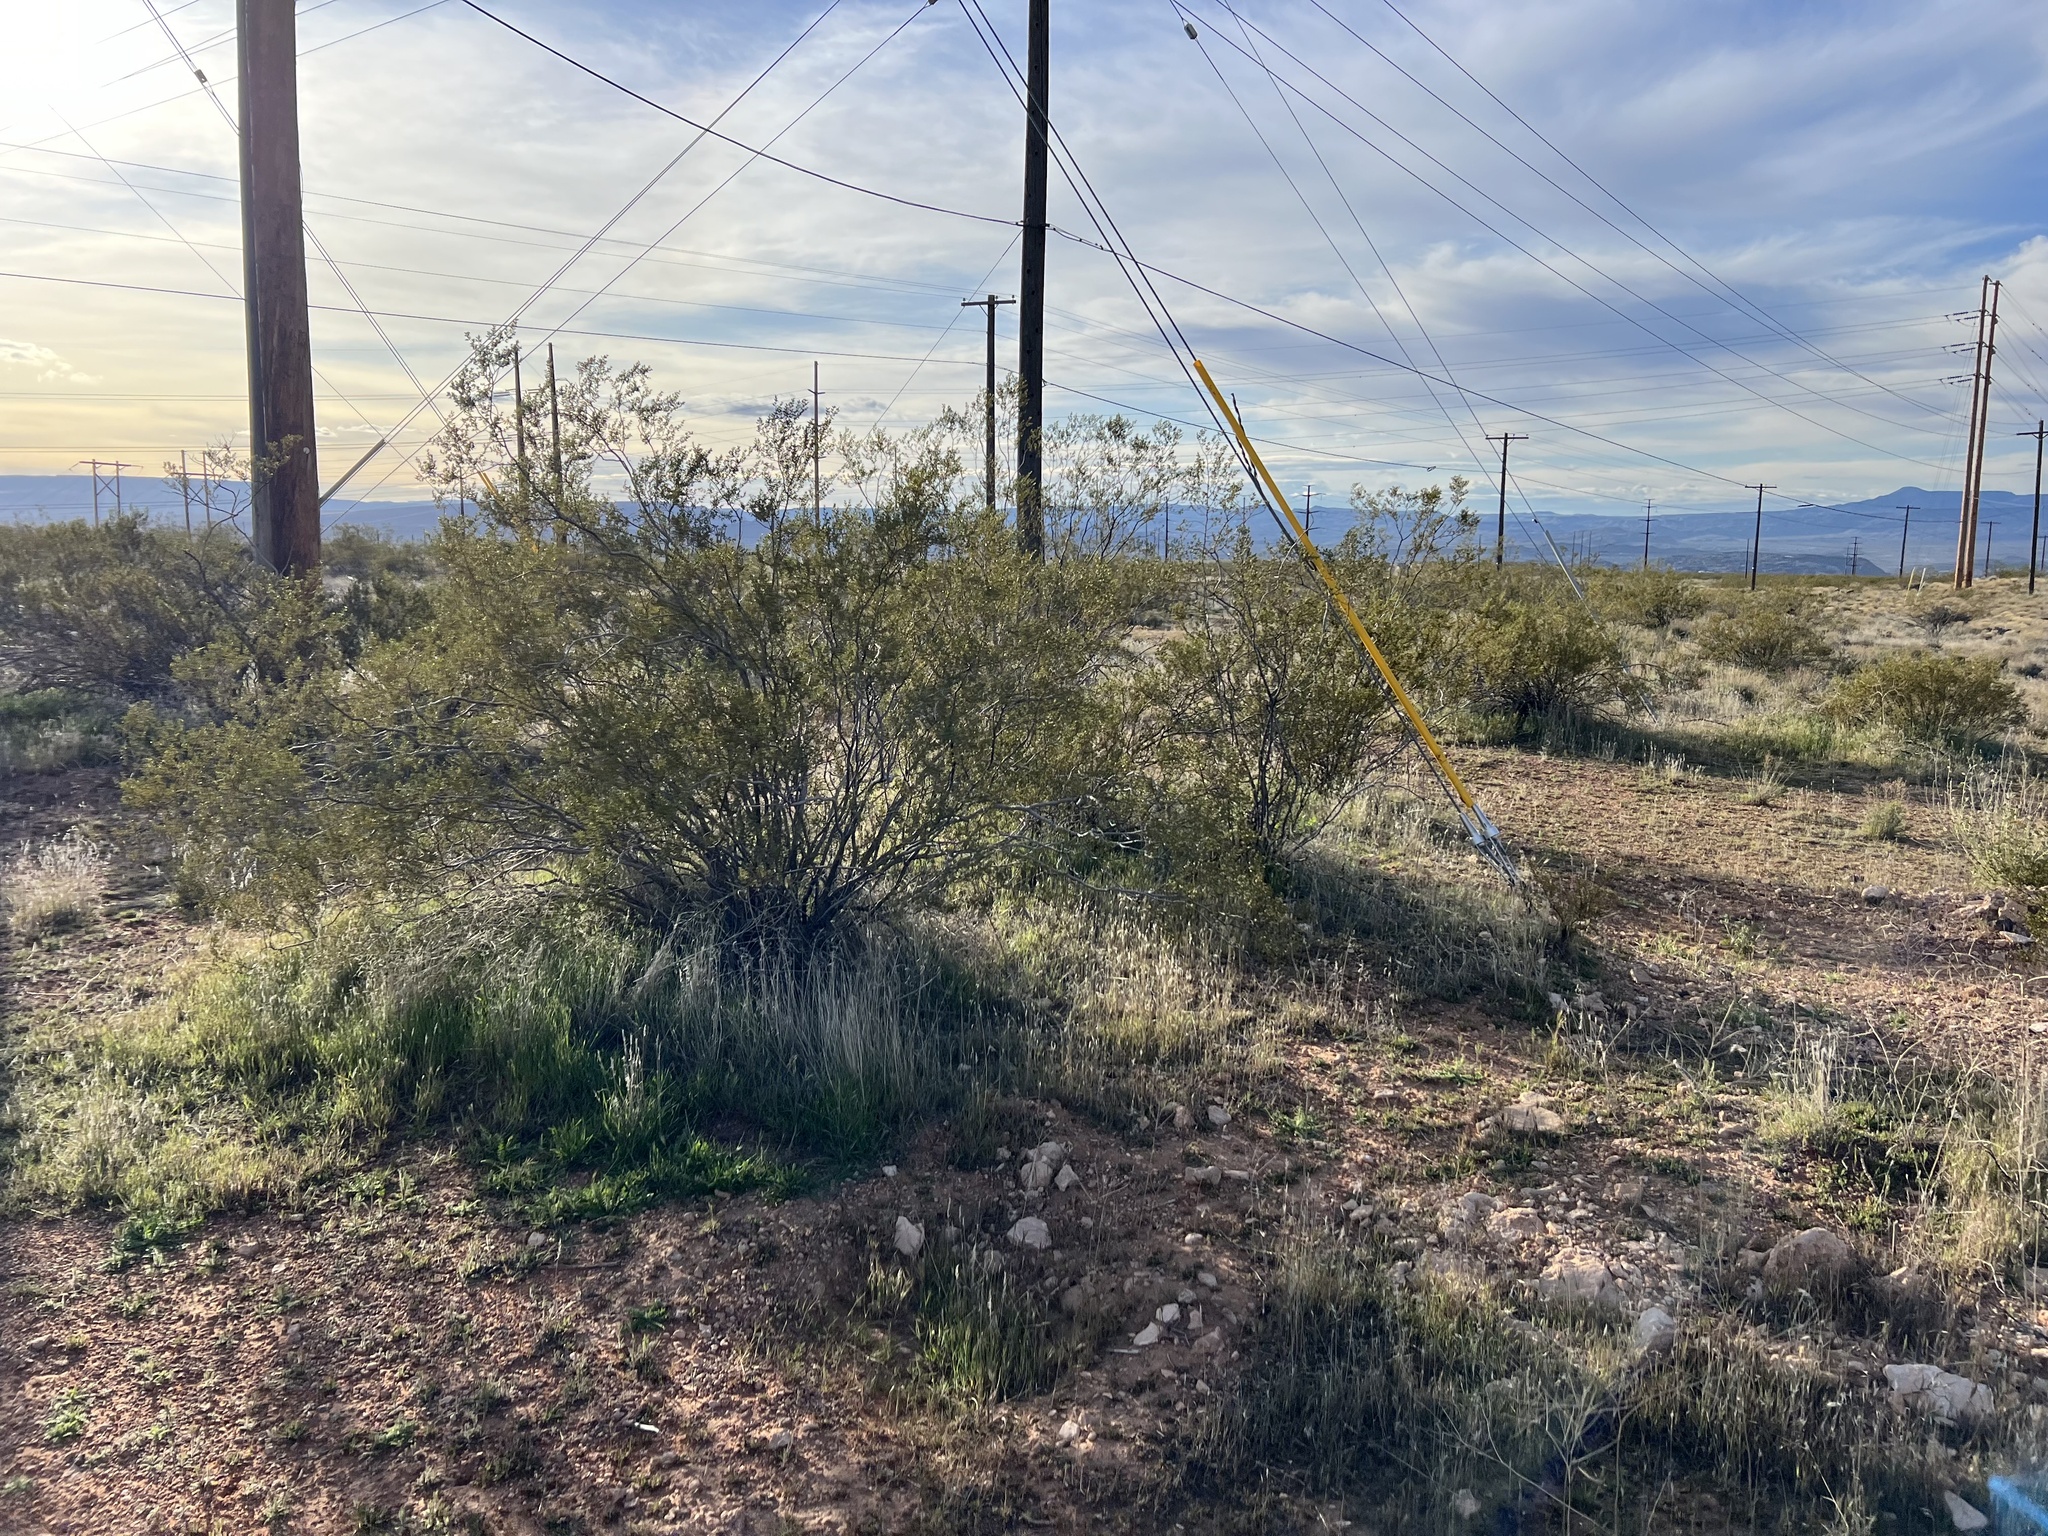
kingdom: Plantae
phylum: Tracheophyta
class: Magnoliopsida
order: Zygophyllales
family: Zygophyllaceae
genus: Larrea
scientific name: Larrea tridentata
